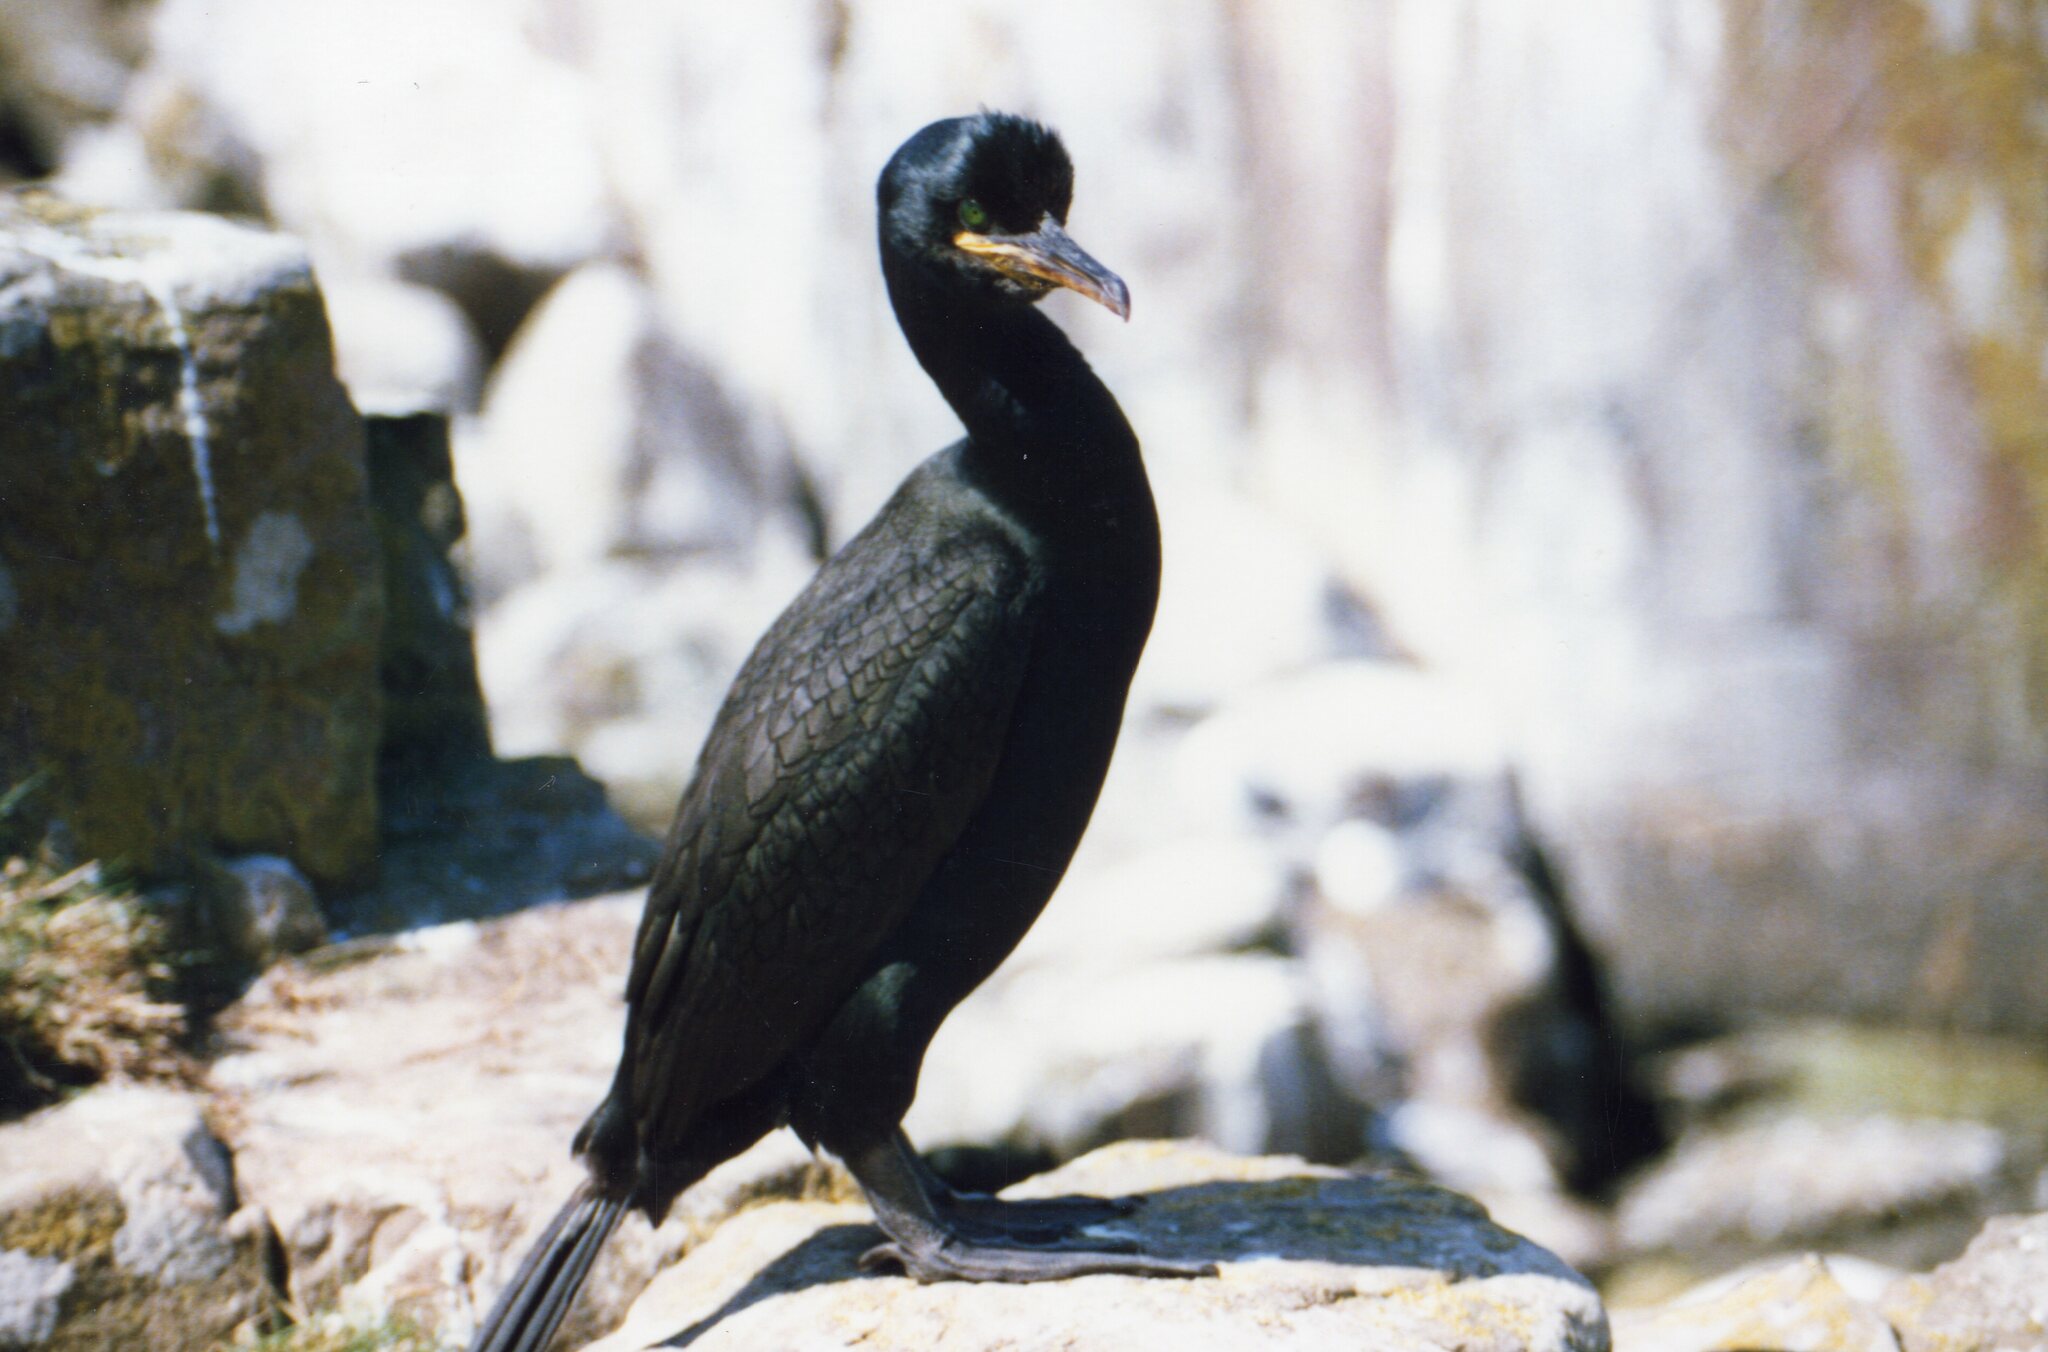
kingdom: Animalia
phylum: Chordata
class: Aves
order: Suliformes
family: Phalacrocoracidae
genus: Phalacrocorax
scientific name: Phalacrocorax aristotelis
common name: European shag
